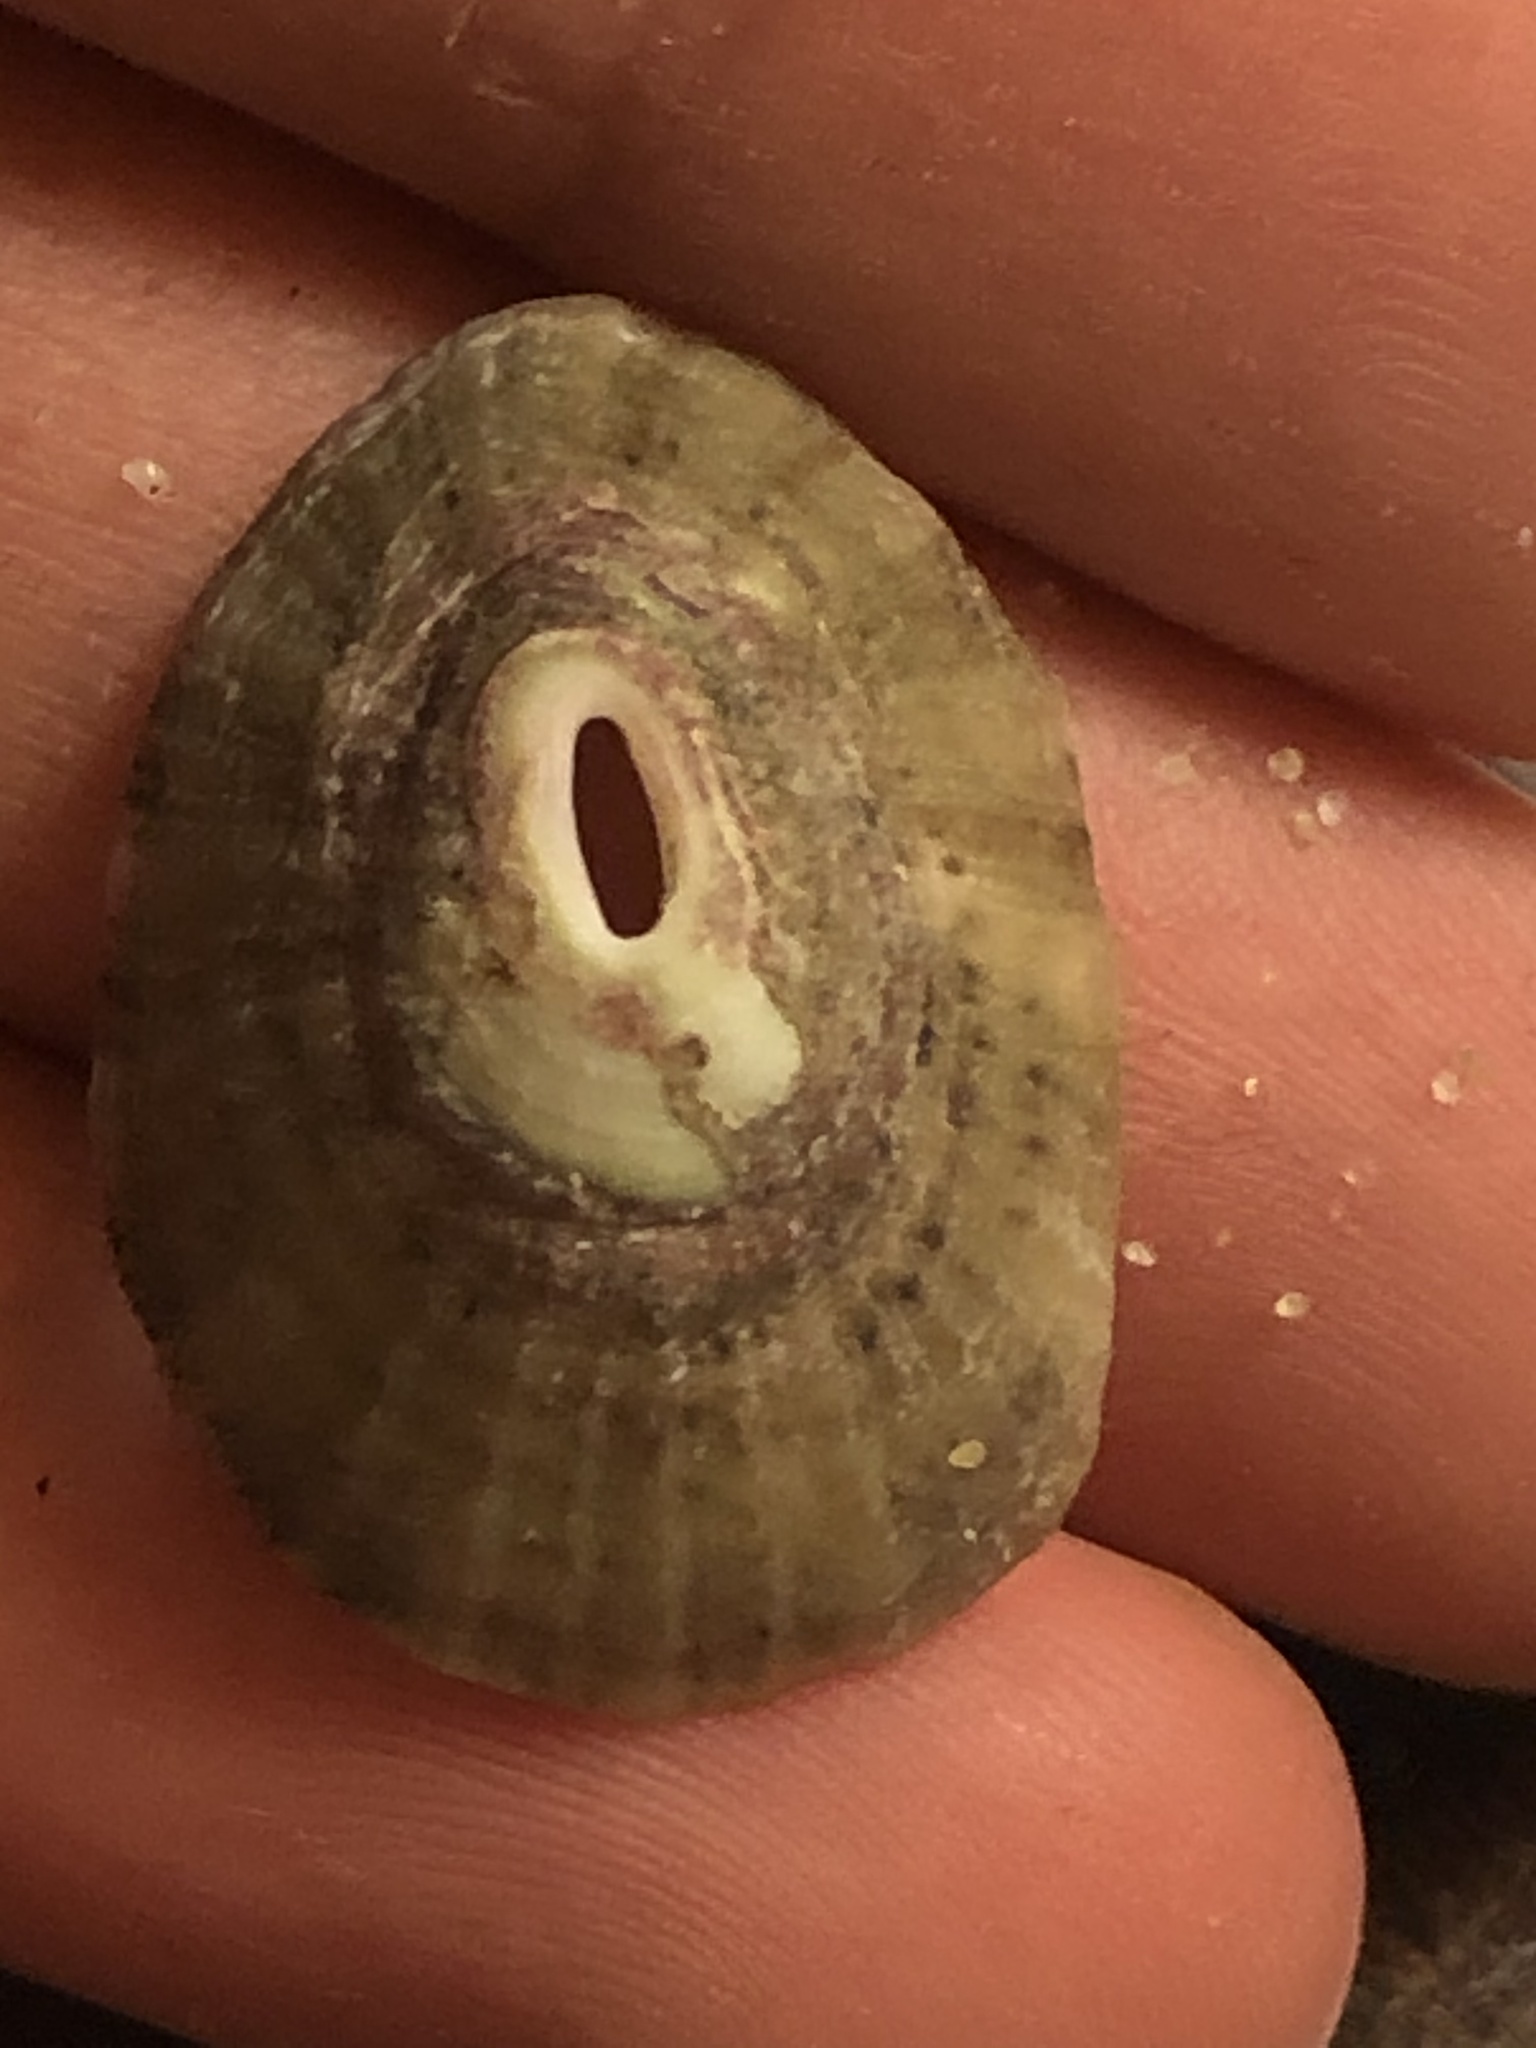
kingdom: Animalia
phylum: Mollusca
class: Gastropoda
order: Lepetellida
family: Fissurellidae
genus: Fissurella
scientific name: Fissurella volcano
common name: Volcano keyhole limpet
